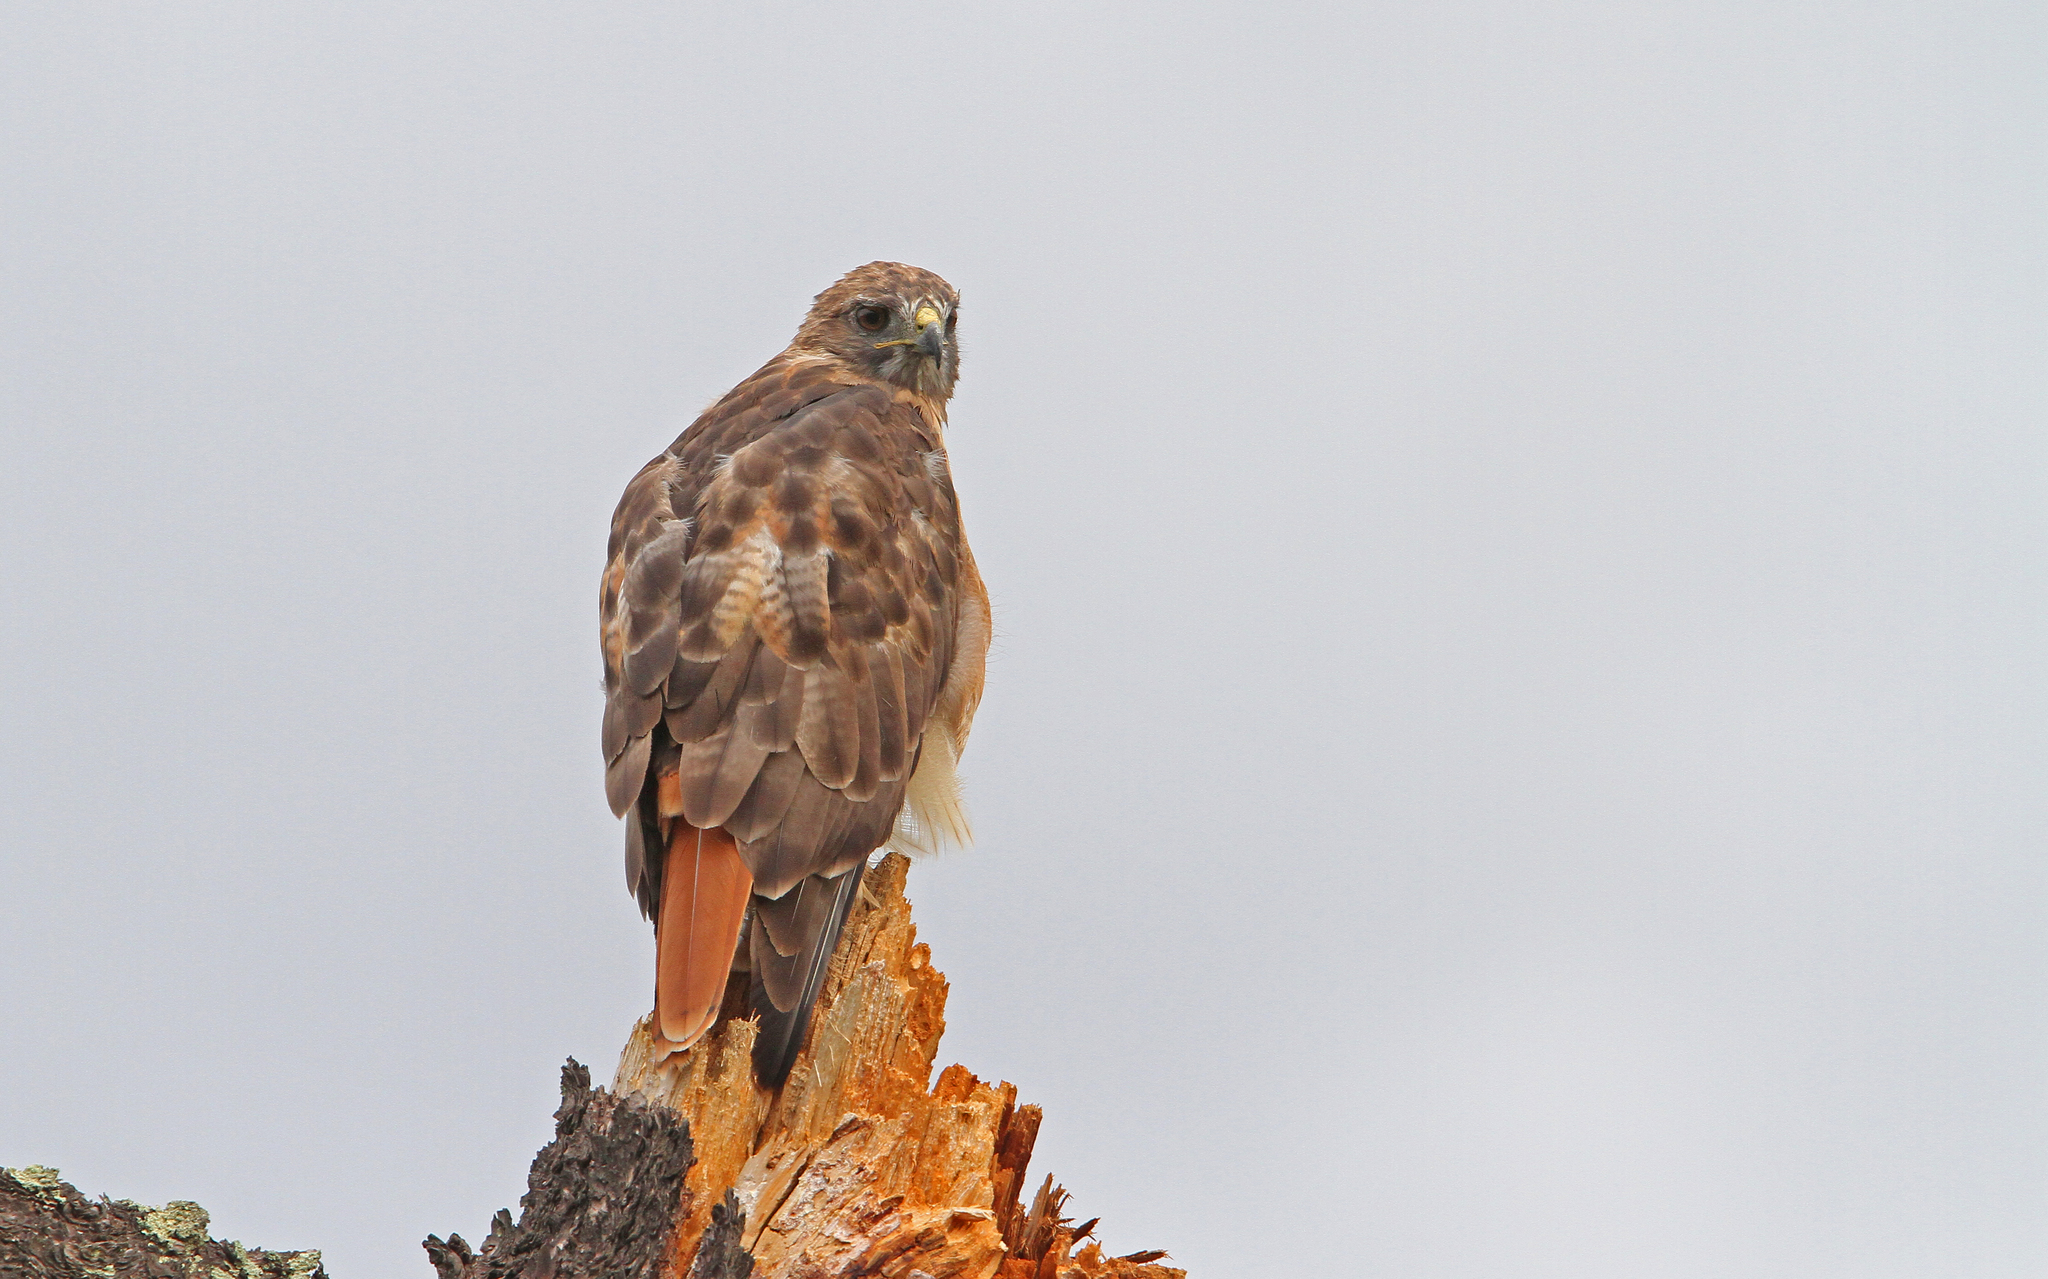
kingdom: Animalia
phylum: Chordata
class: Aves
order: Accipitriformes
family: Accipitridae
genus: Buteo
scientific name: Buteo jamaicensis
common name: Red-tailed hawk
